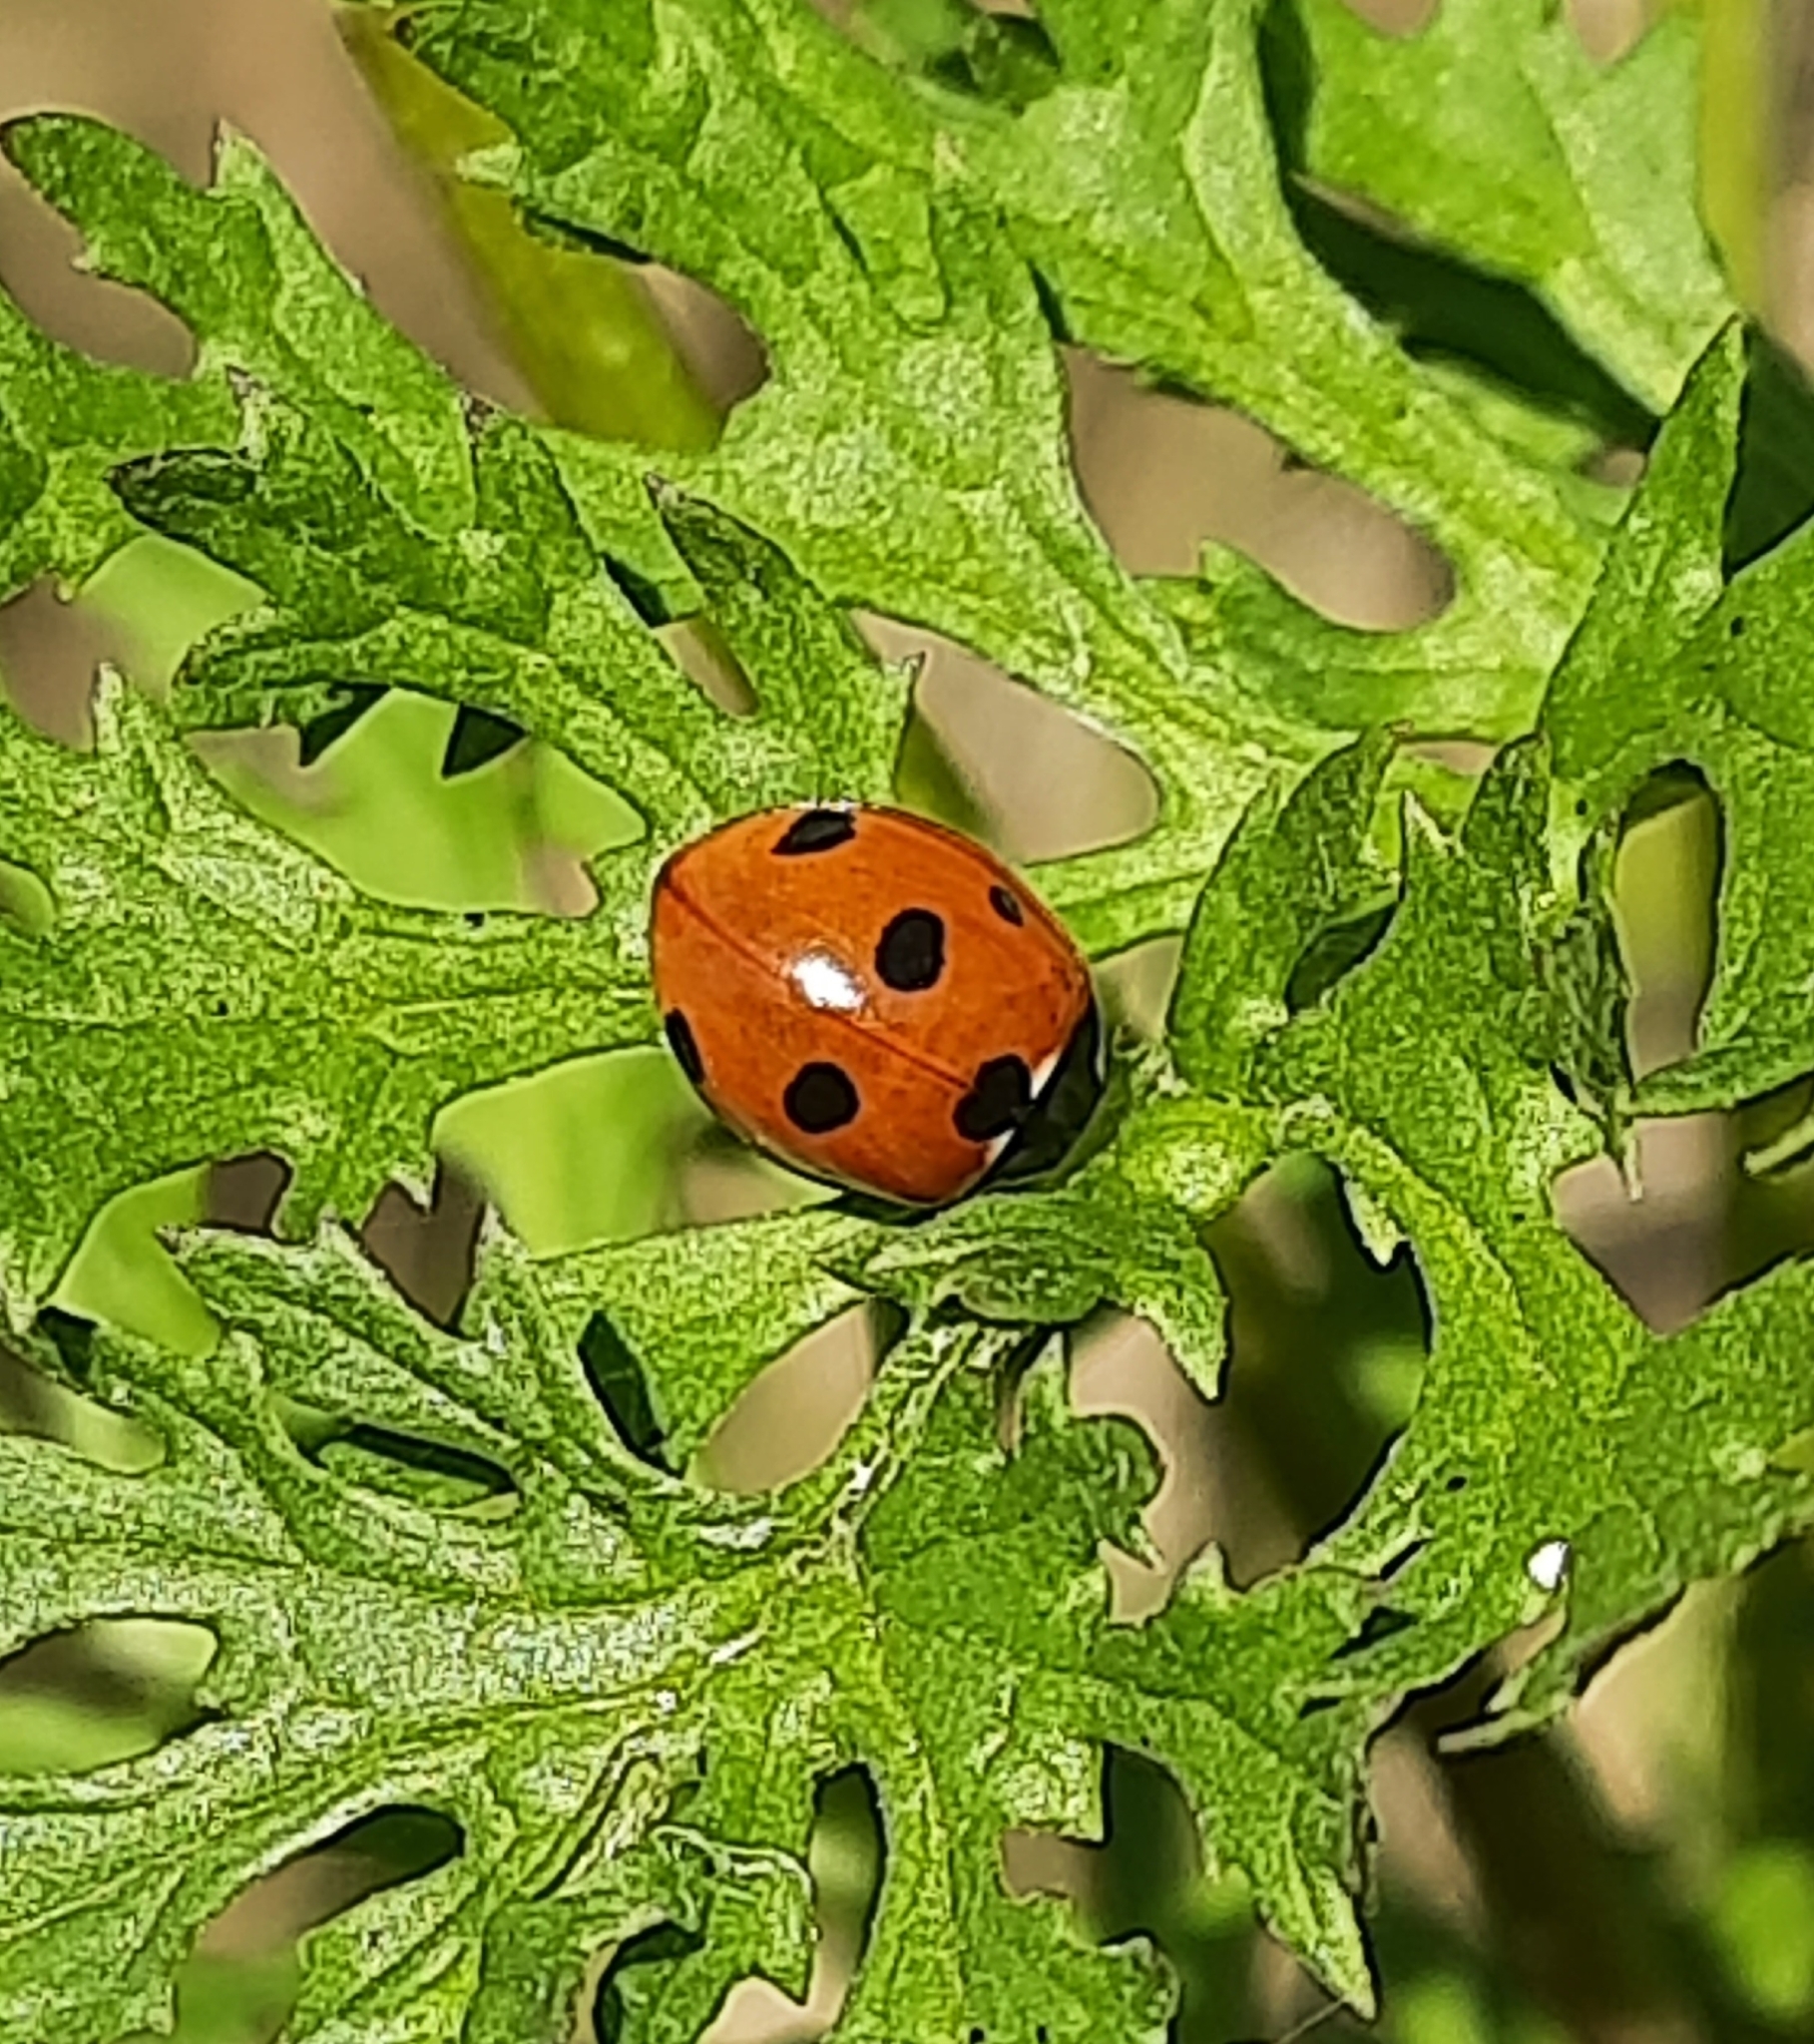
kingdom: Animalia
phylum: Arthropoda
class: Insecta
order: Coleoptera
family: Coccinellidae
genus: Coccinella
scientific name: Coccinella septempunctata
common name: Sevenspotted lady beetle
